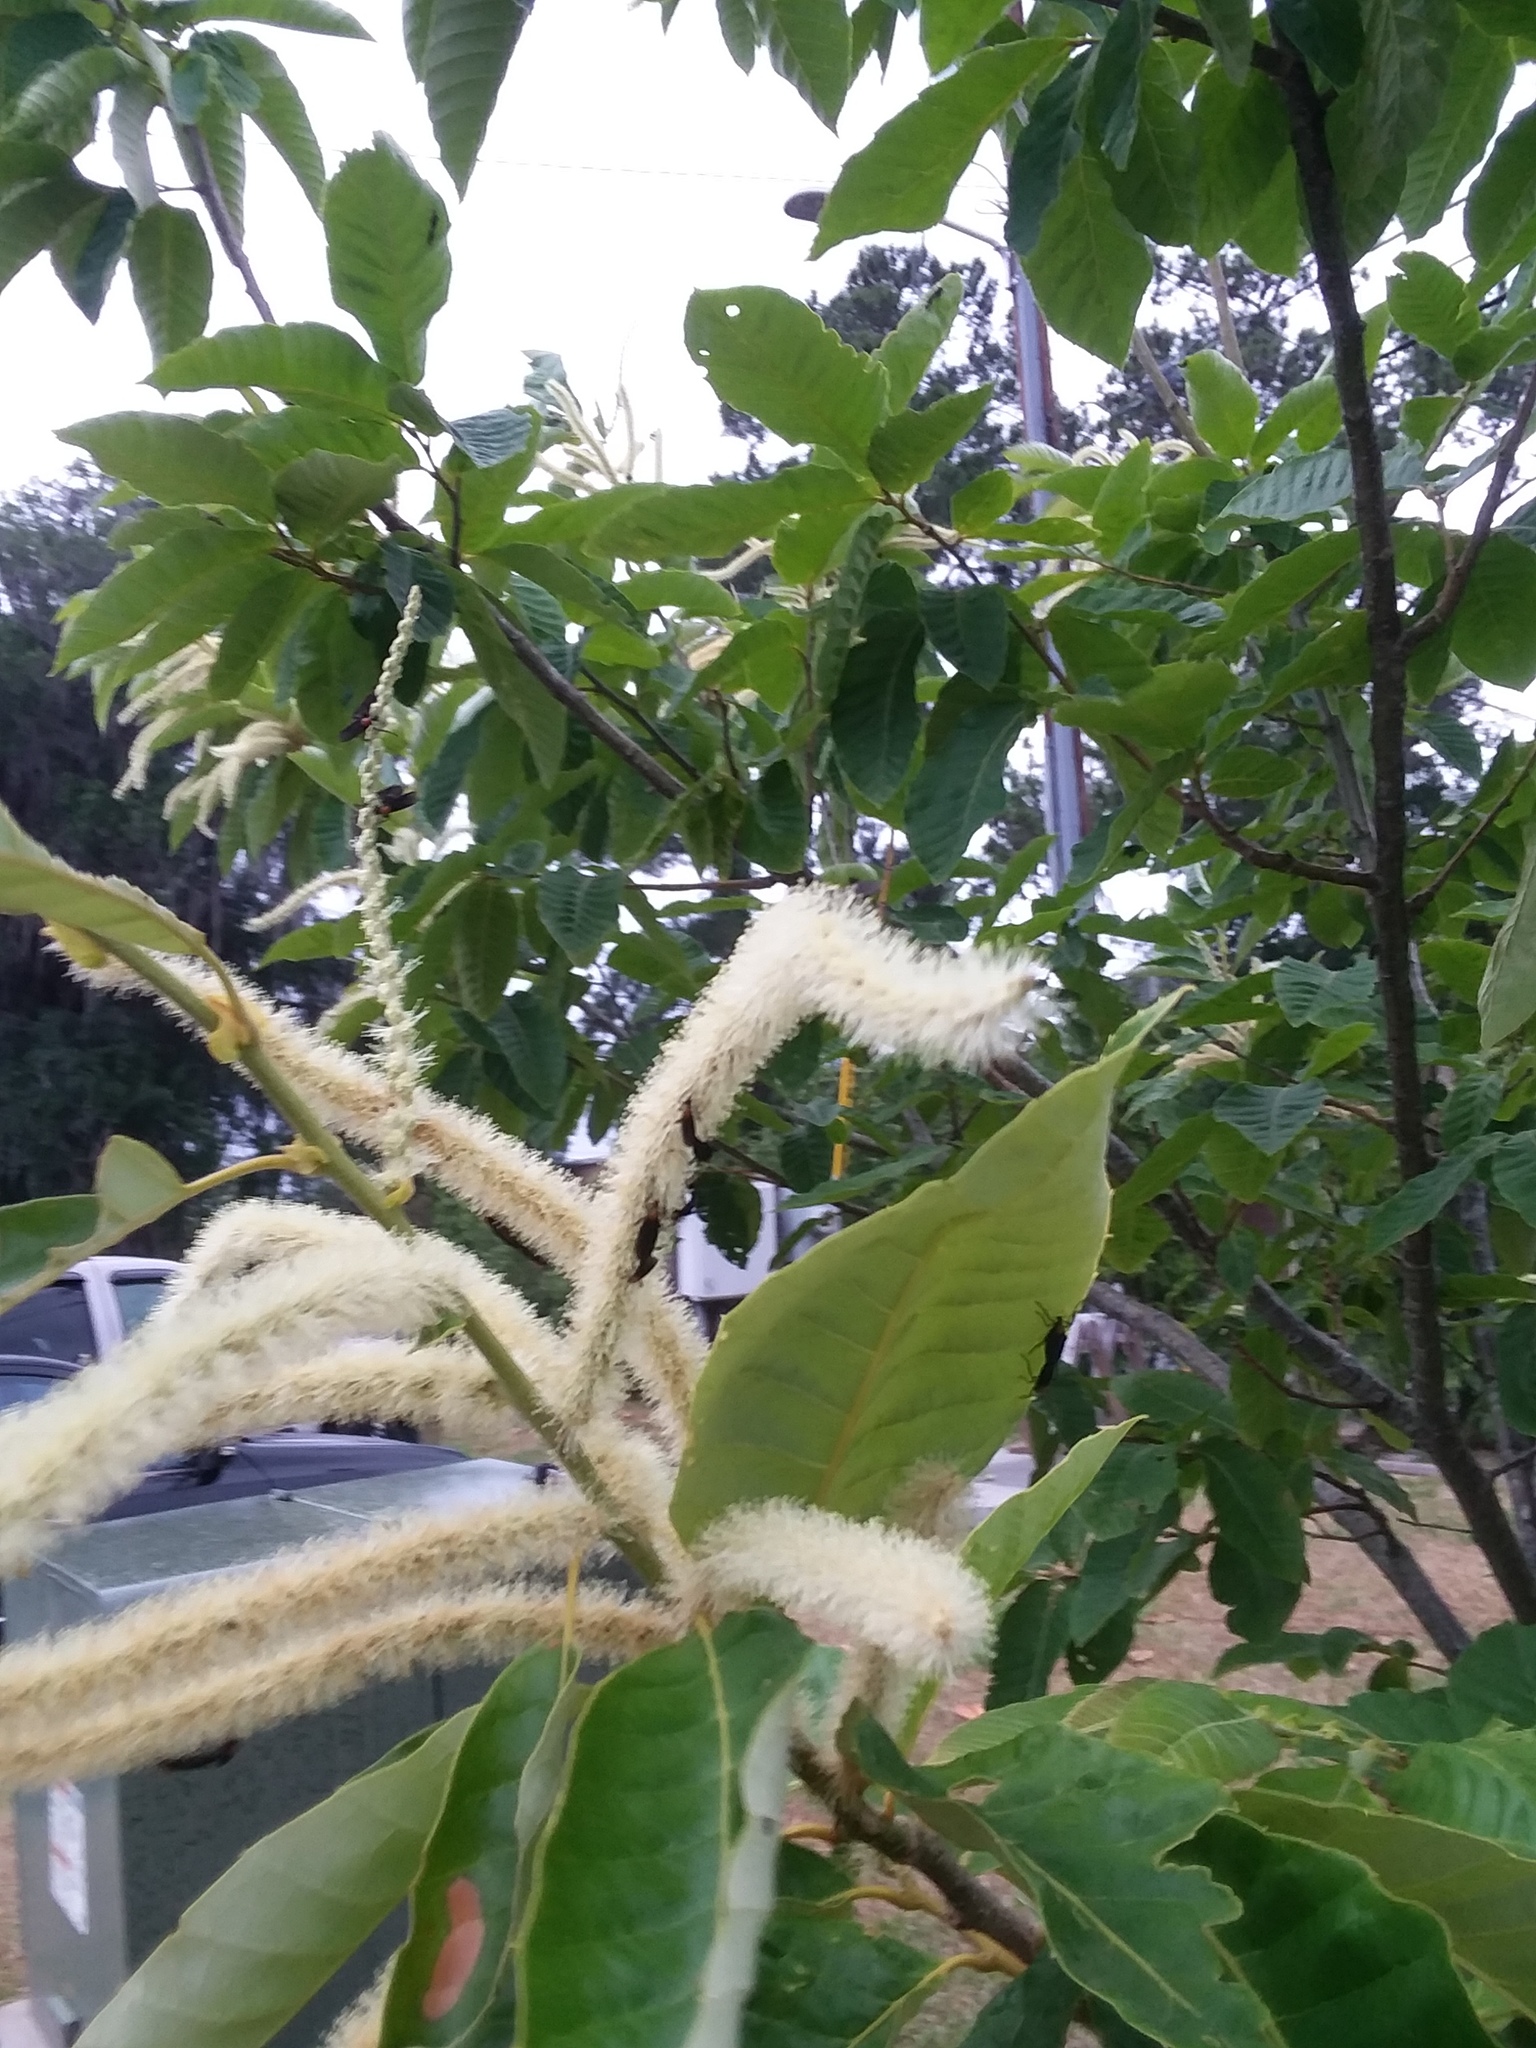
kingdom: Animalia
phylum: Arthropoda
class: Insecta
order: Diptera
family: Bibionidae
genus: Plecia
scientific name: Plecia nearctica
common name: March fly
